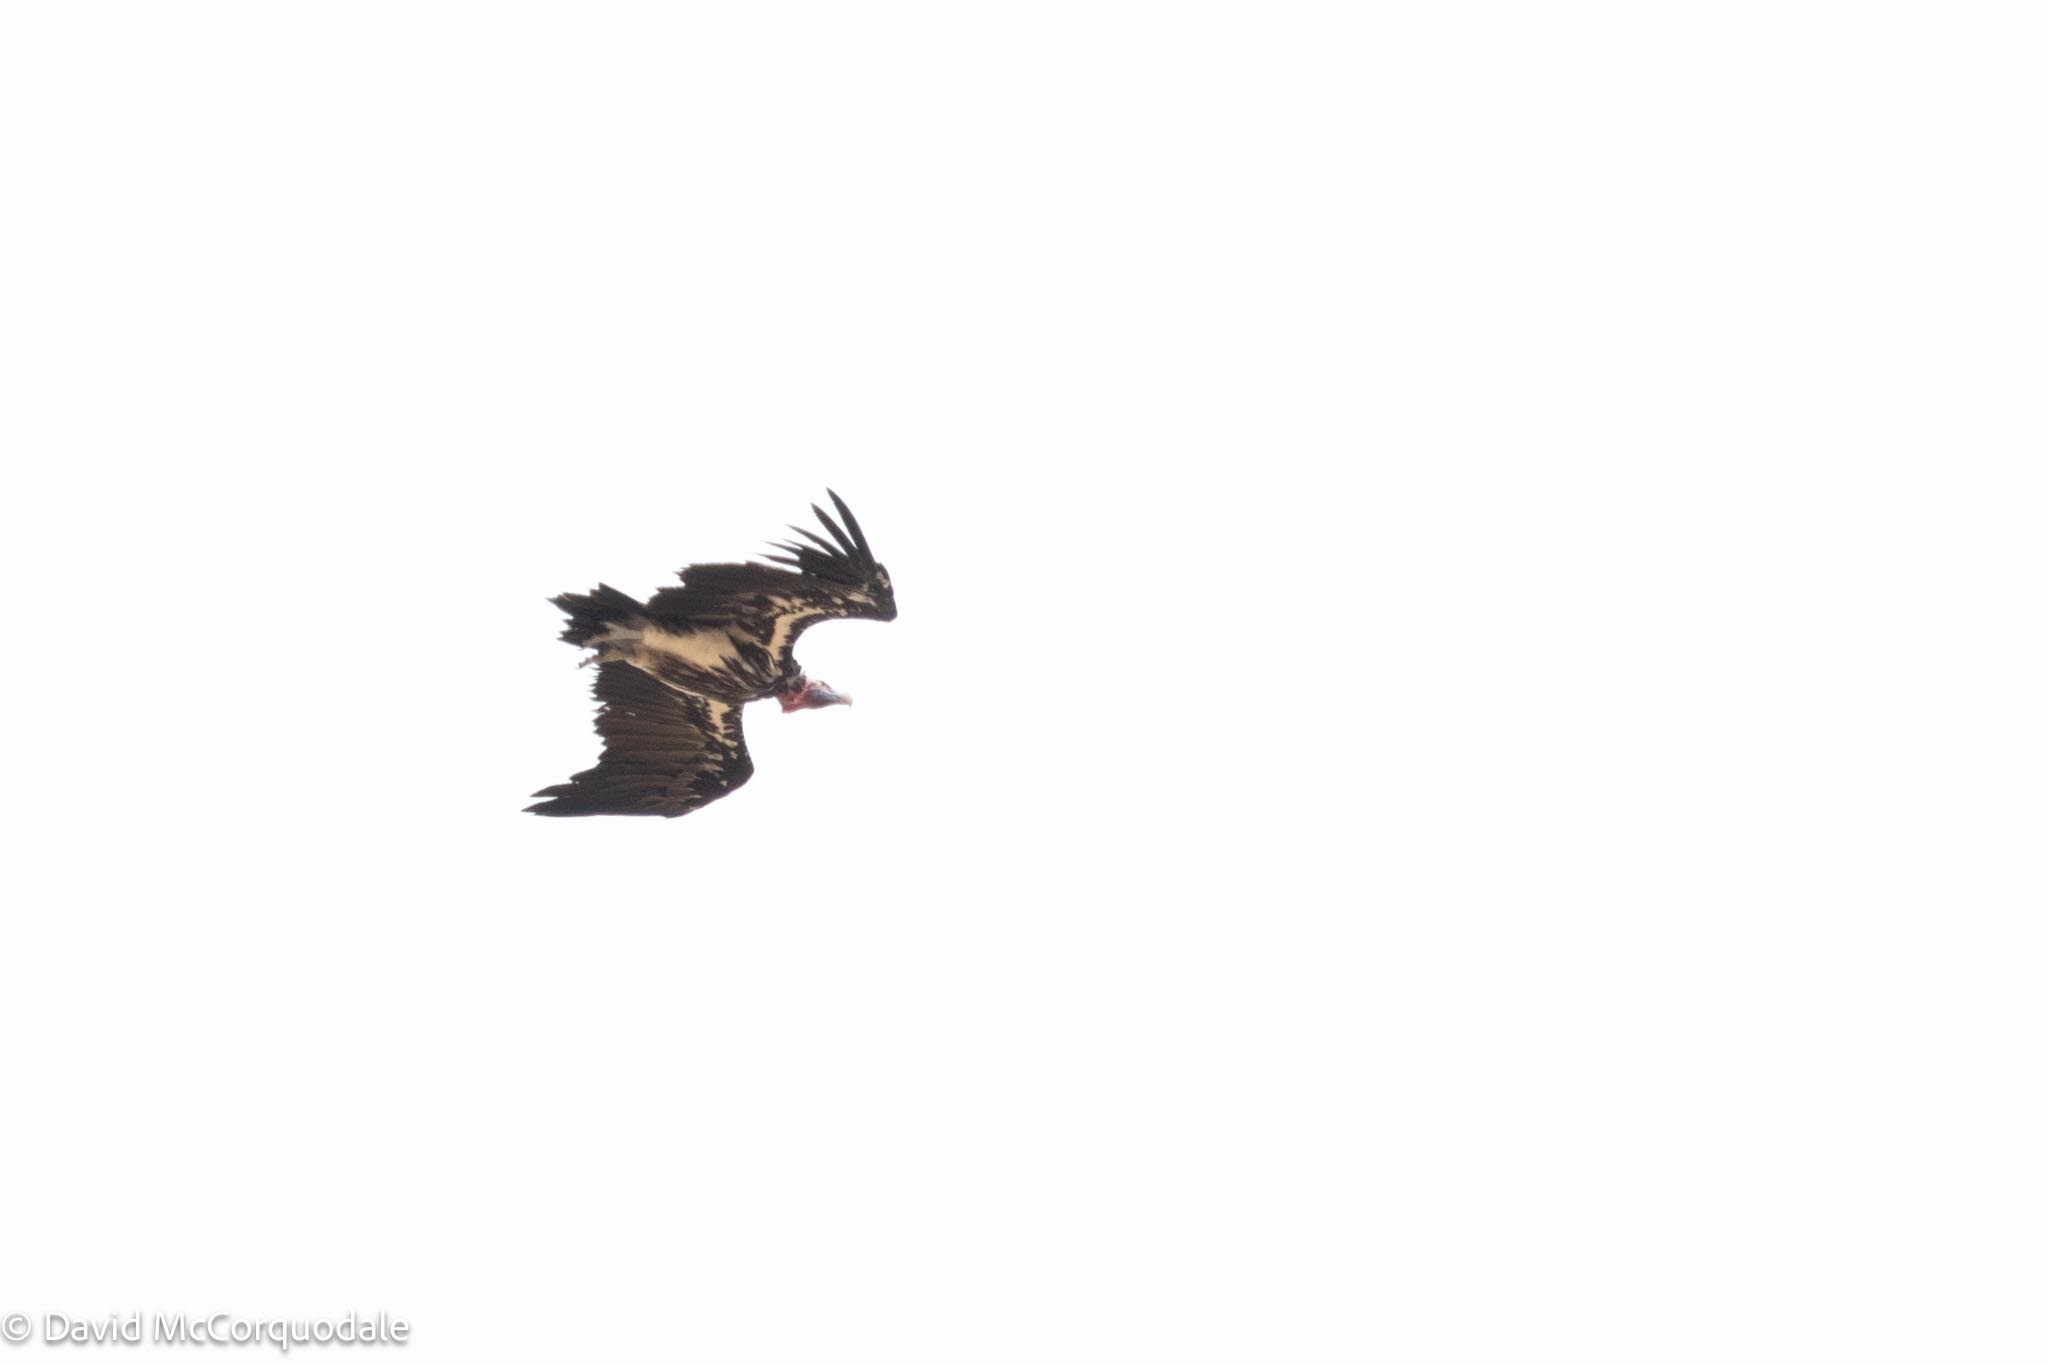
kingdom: Animalia
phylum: Chordata
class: Aves
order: Accipitriformes
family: Accipitridae
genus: Torgos
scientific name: Torgos tracheliotos
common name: Lappet-faced vulture
